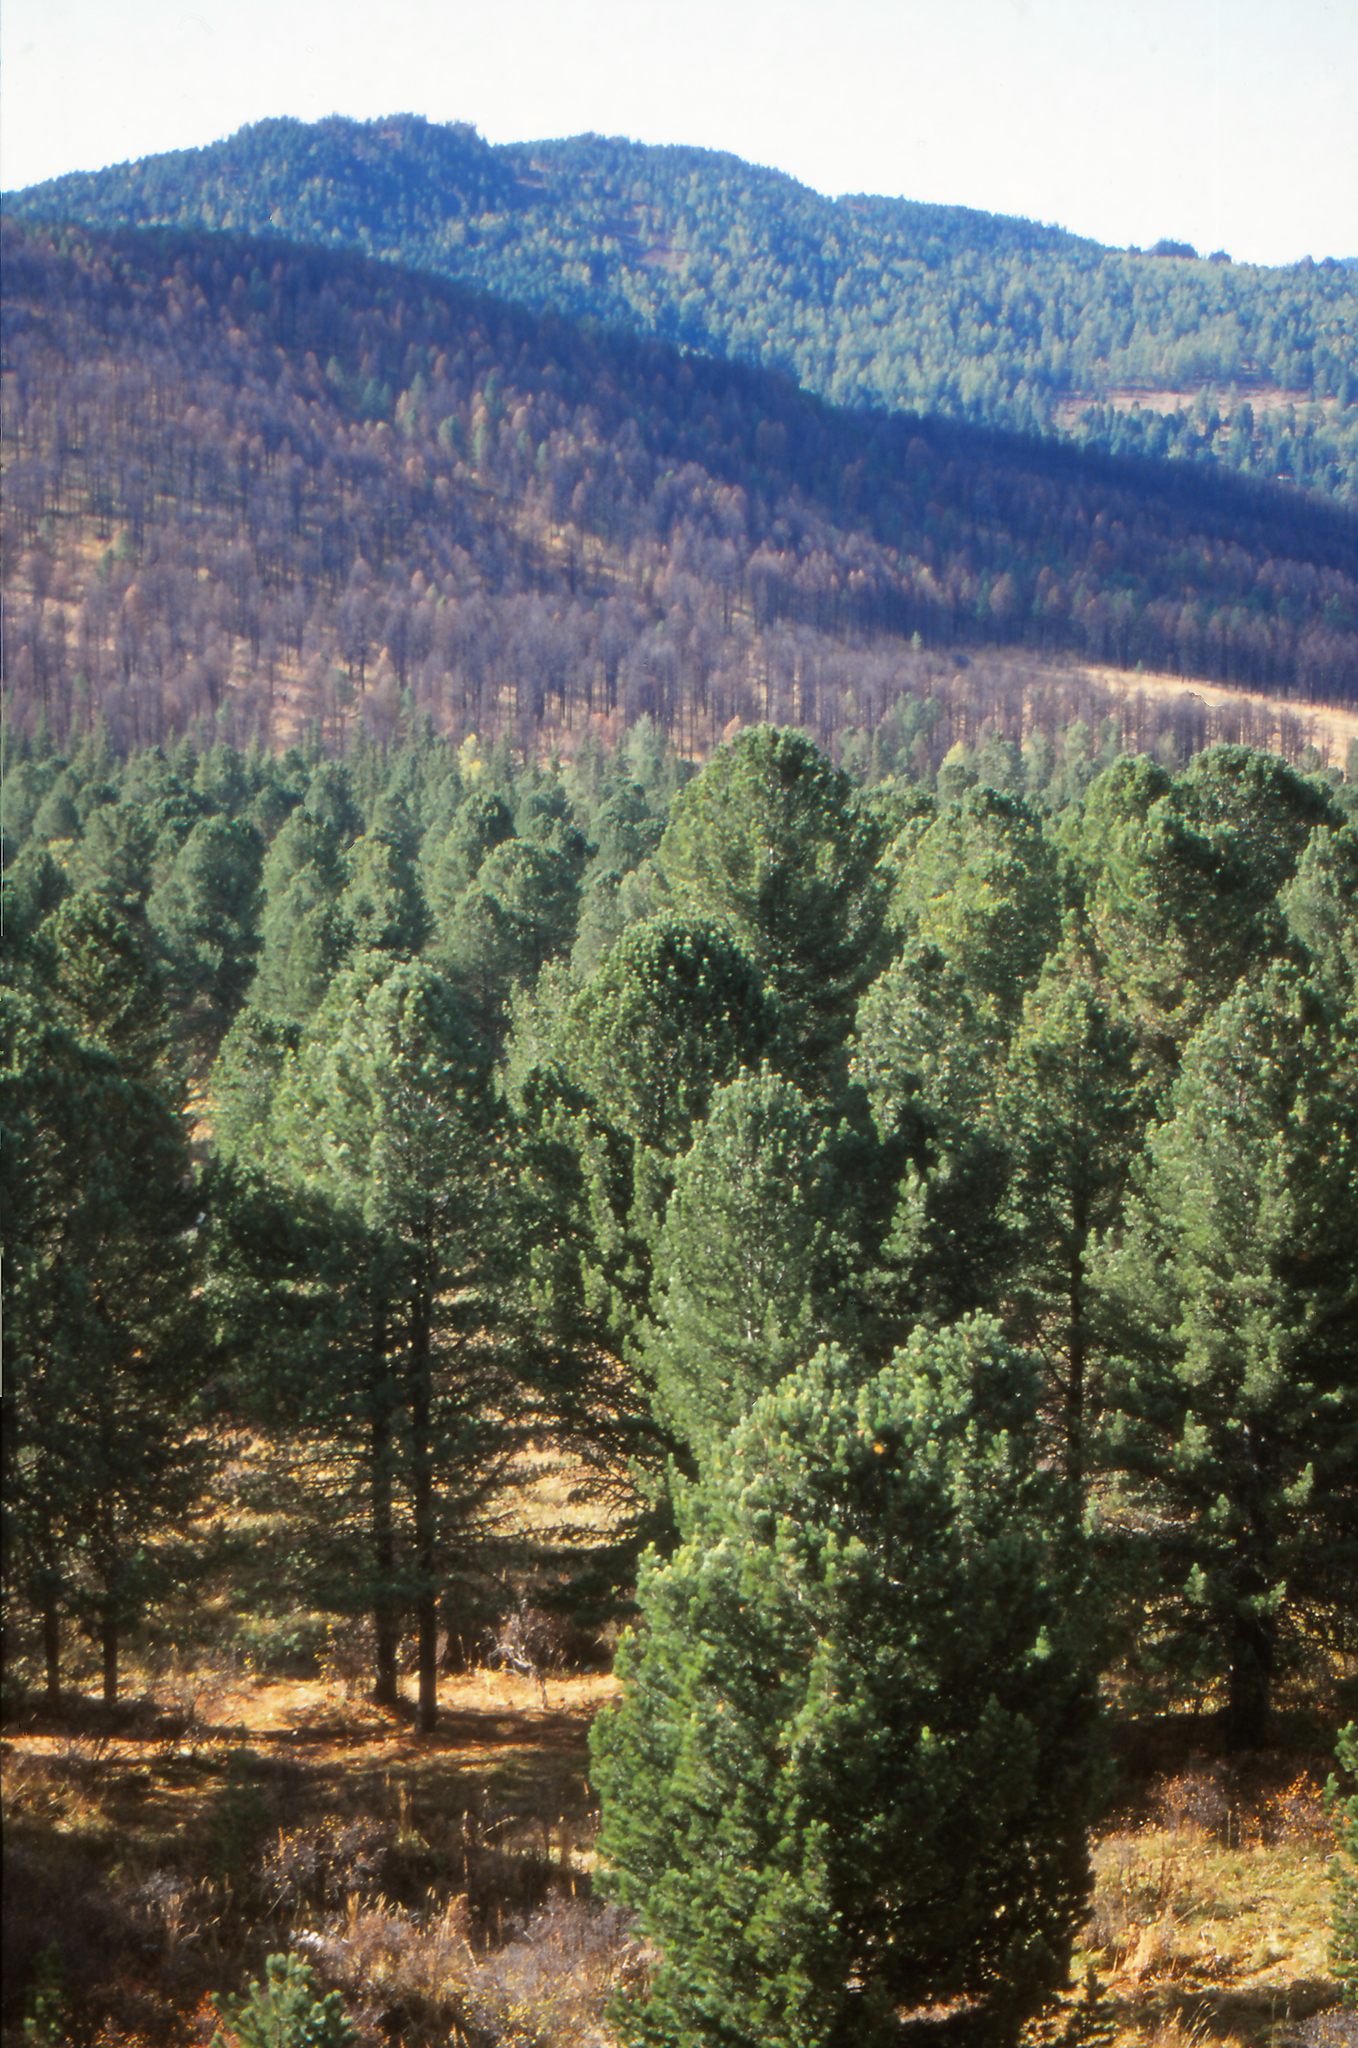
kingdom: Plantae
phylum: Tracheophyta
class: Pinopsida
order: Pinales
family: Pinaceae
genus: Pinus
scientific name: Pinus sibirica
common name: Siberian pine
